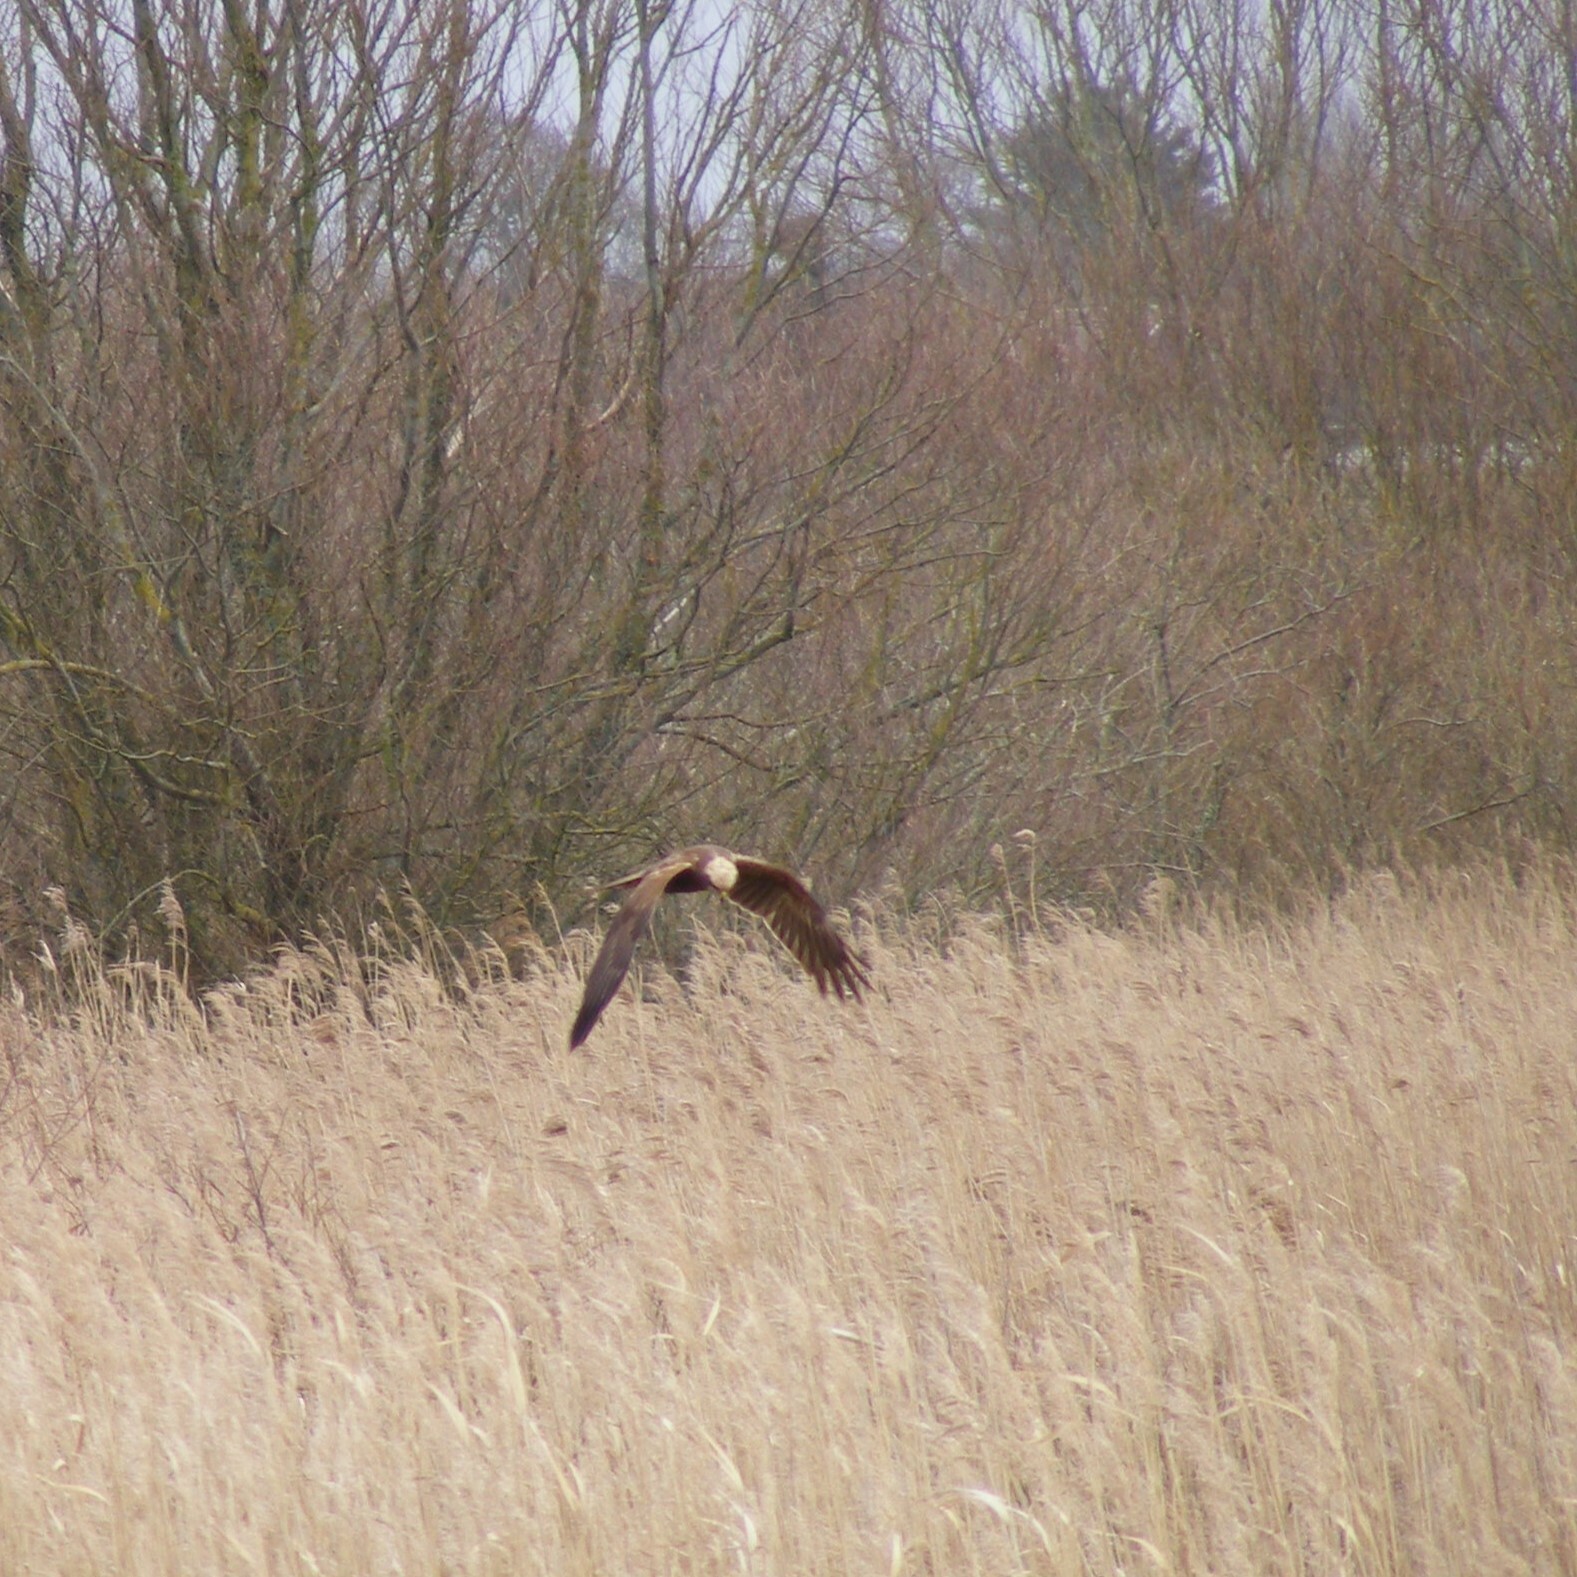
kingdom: Animalia
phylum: Chordata
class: Aves
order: Accipitriformes
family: Accipitridae
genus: Circus
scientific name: Circus aeruginosus
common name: Western marsh harrier
